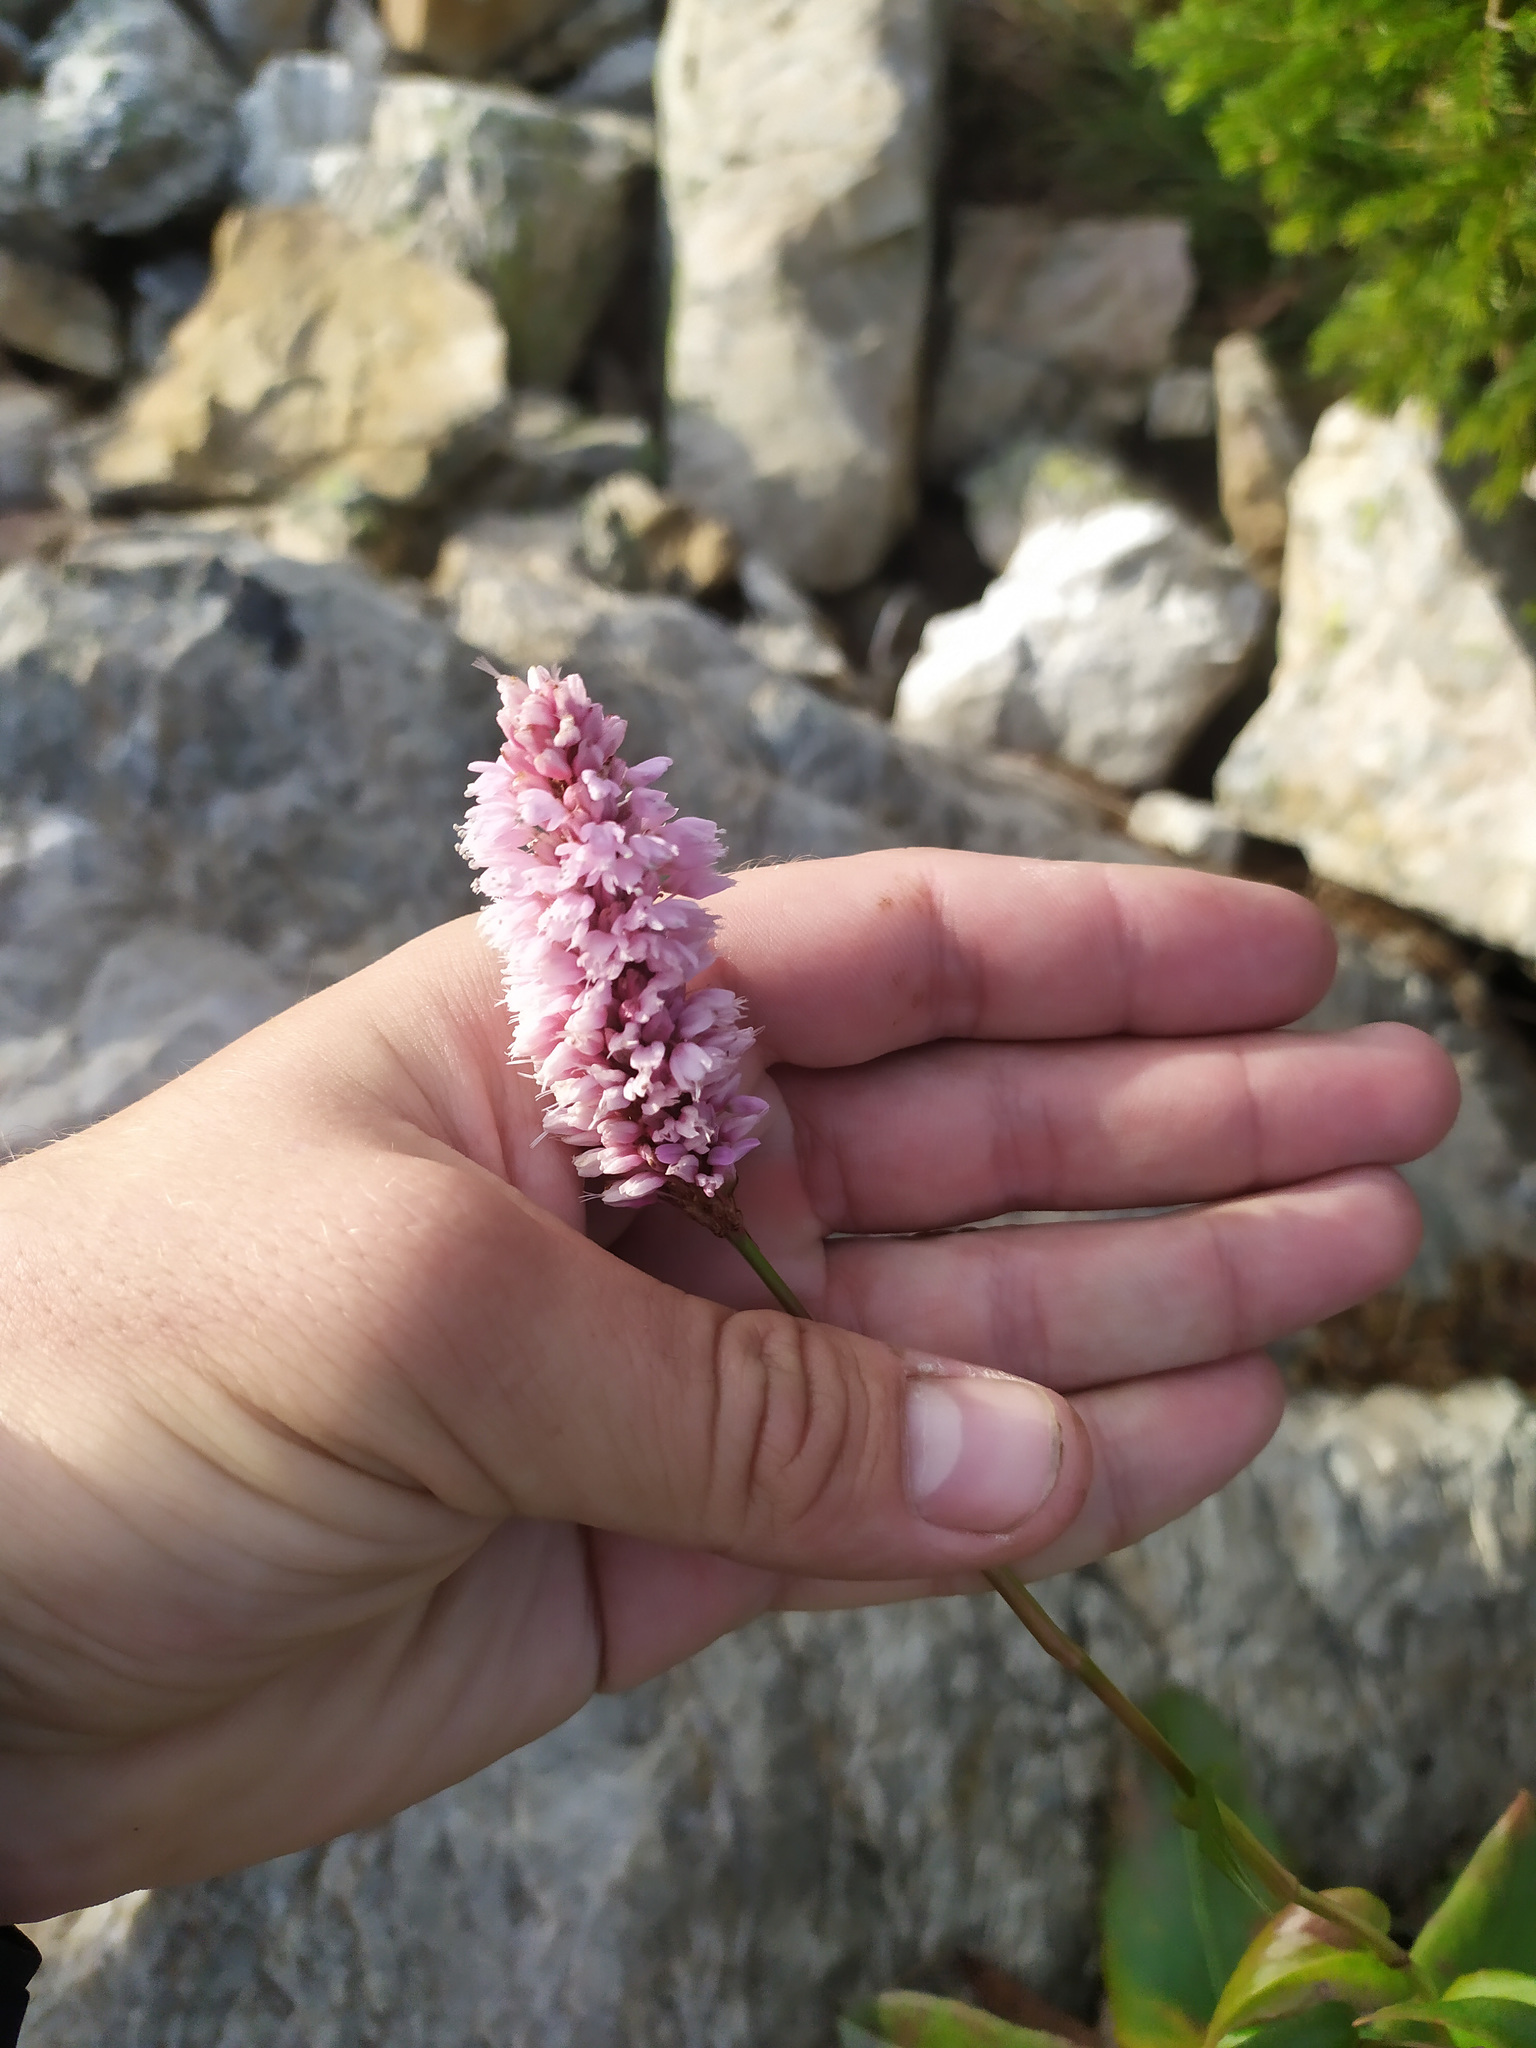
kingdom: Plantae
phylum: Tracheophyta
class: Magnoliopsida
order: Caryophyllales
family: Polygonaceae
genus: Bistorta
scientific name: Bistorta officinalis
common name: Common bistort
